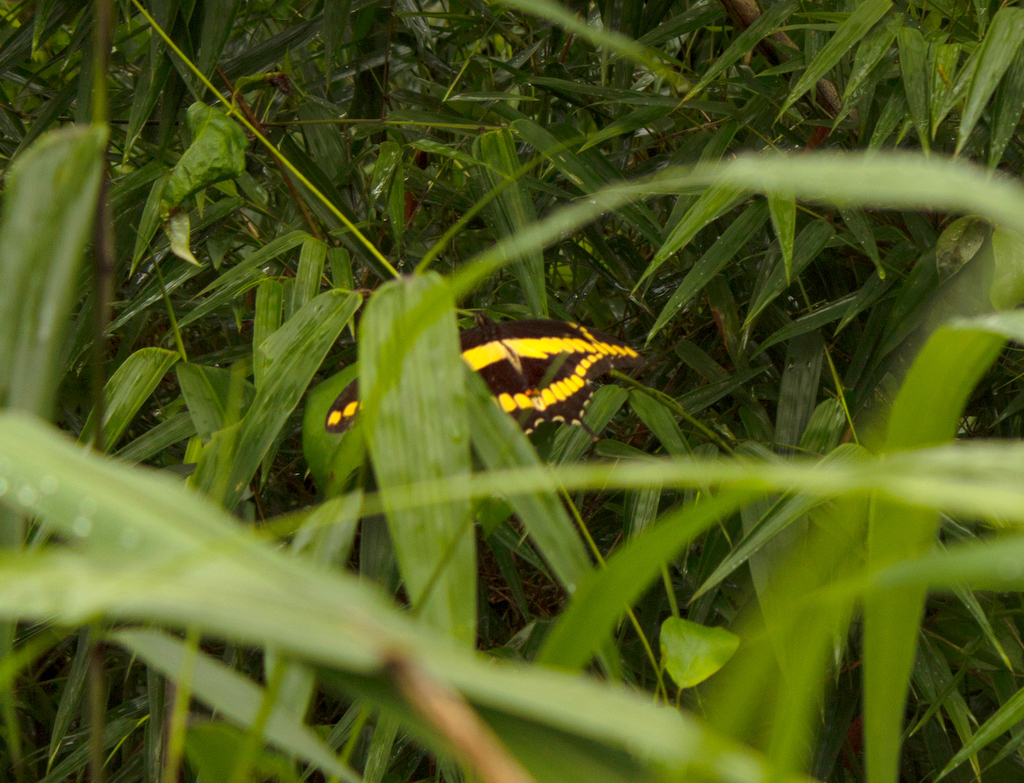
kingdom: Animalia
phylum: Arthropoda
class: Insecta
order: Lepidoptera
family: Papilionidae
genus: Papilio
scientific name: Papilio thoas
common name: King swallowtail
